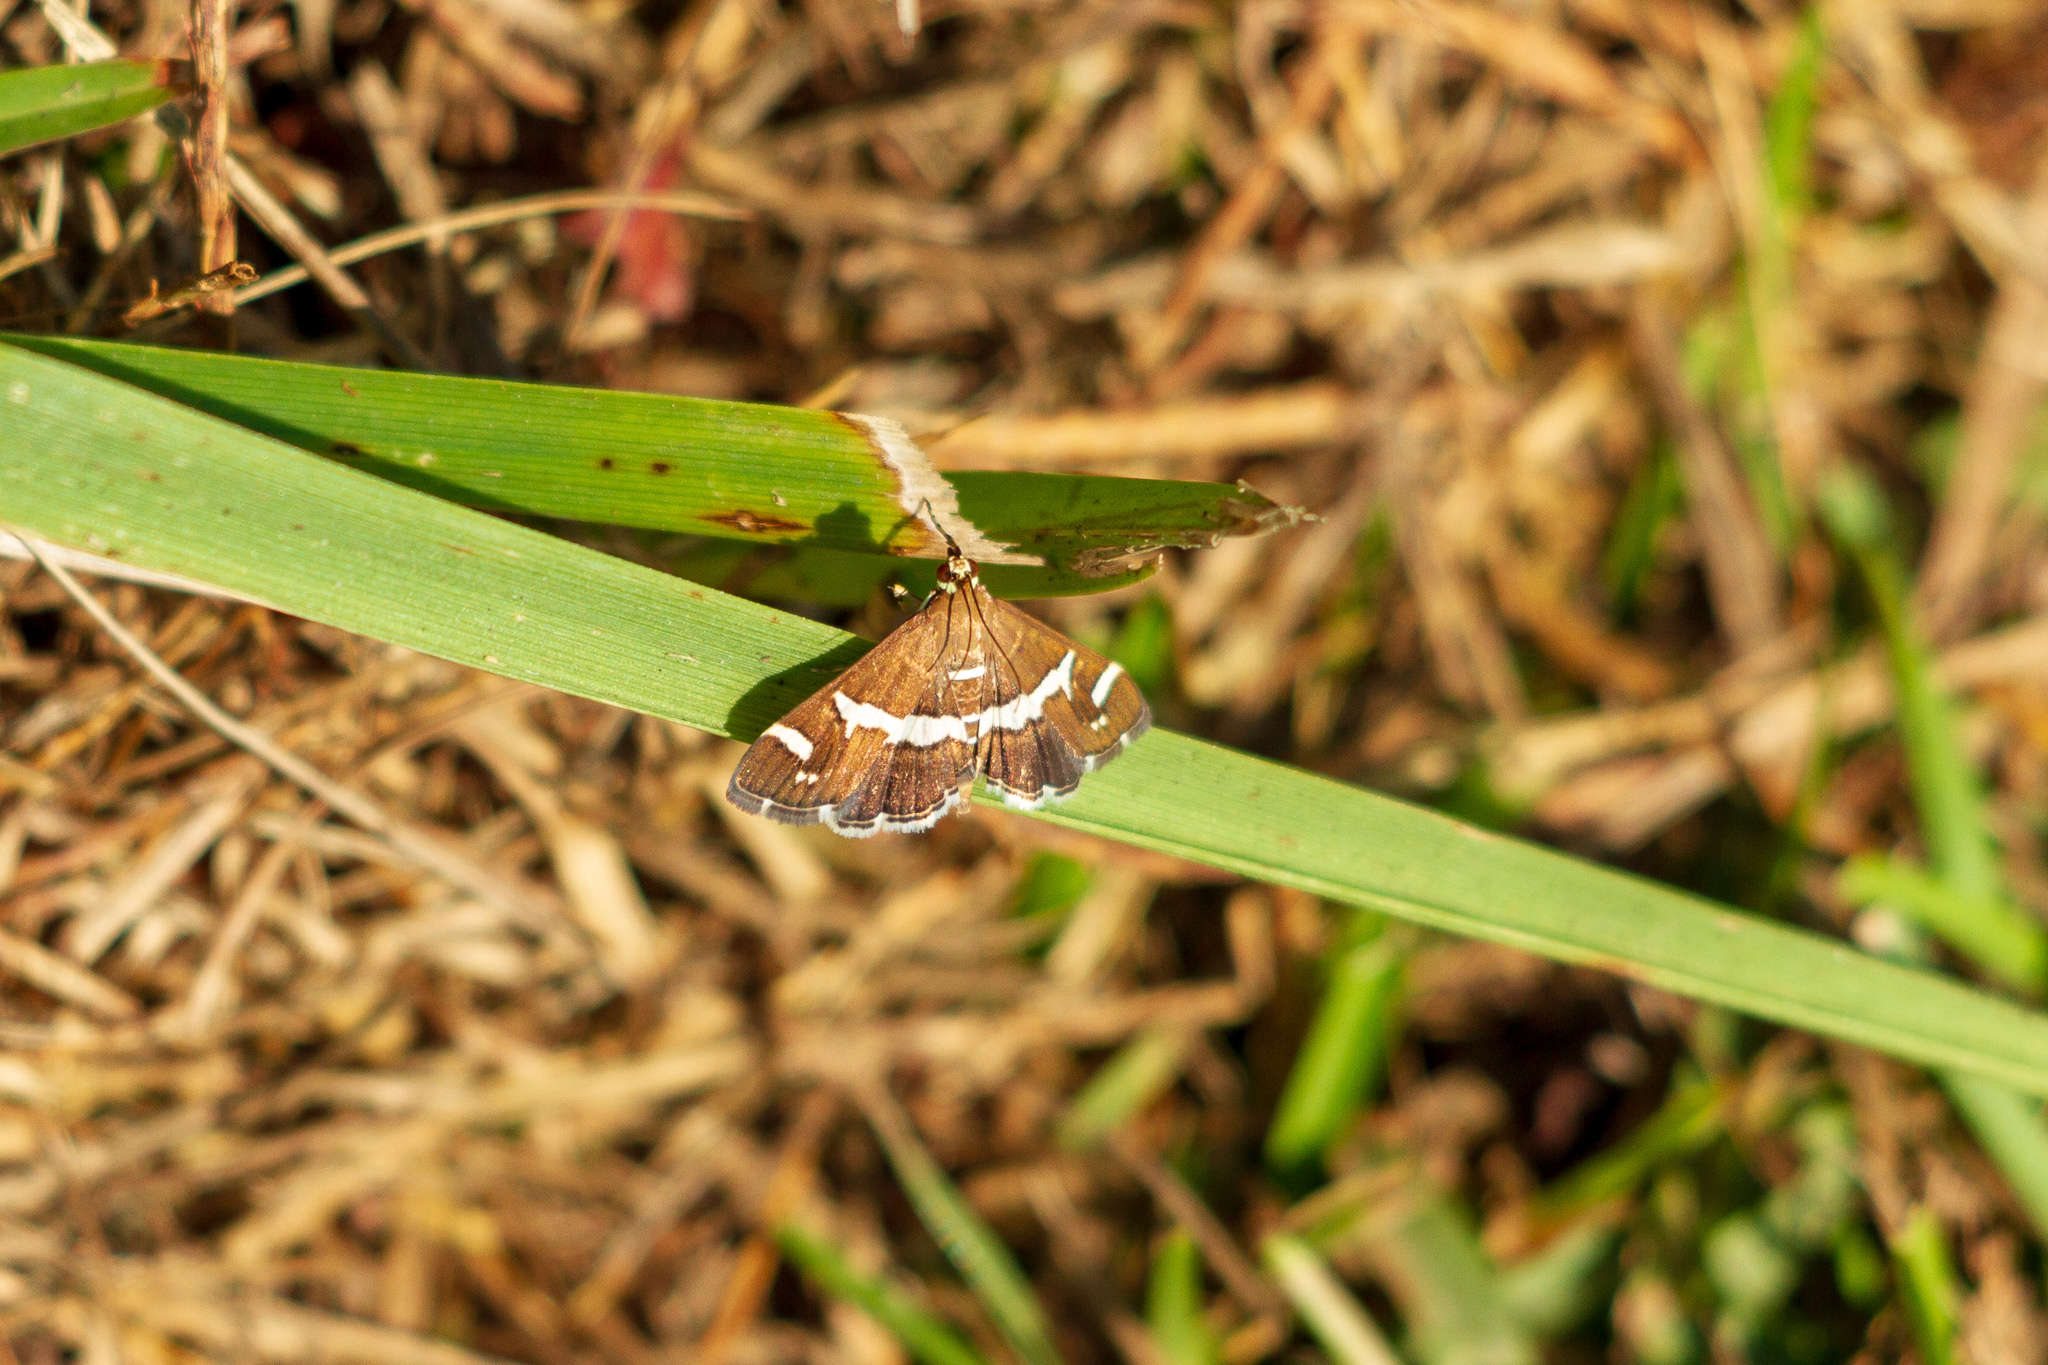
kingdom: Animalia
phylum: Arthropoda
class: Insecta
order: Lepidoptera
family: Crambidae
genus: Spoladea
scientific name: Spoladea recurvalis
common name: Beet webworm moth
